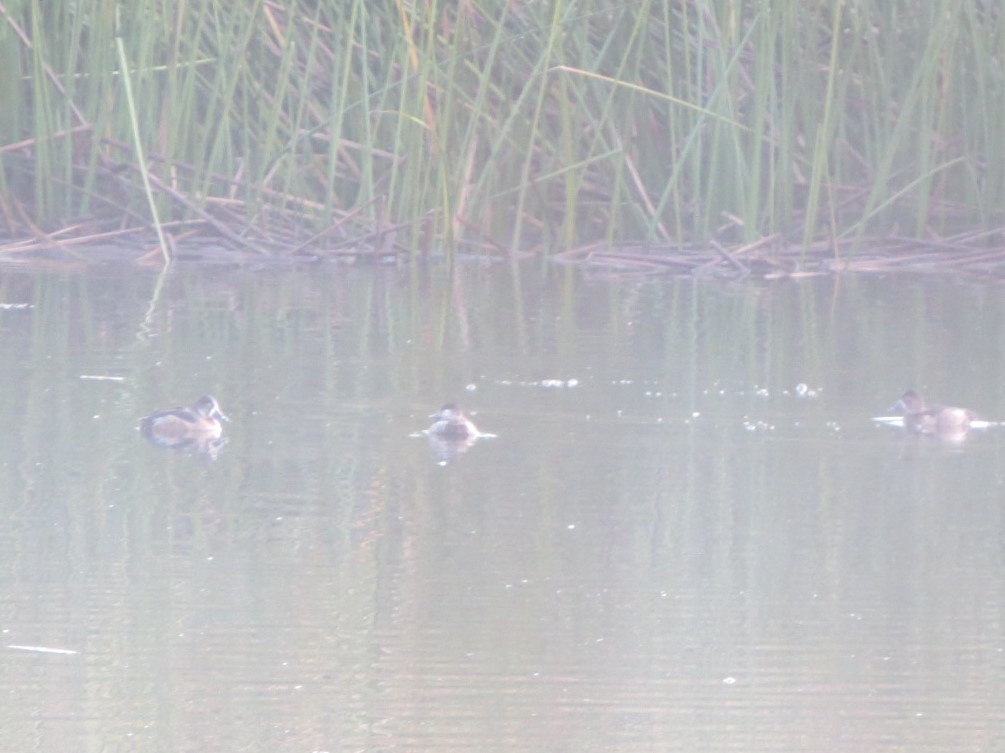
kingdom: Animalia
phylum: Chordata
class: Aves
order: Anseriformes
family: Anatidae
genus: Aythya
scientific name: Aythya collaris
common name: Ring-necked duck
